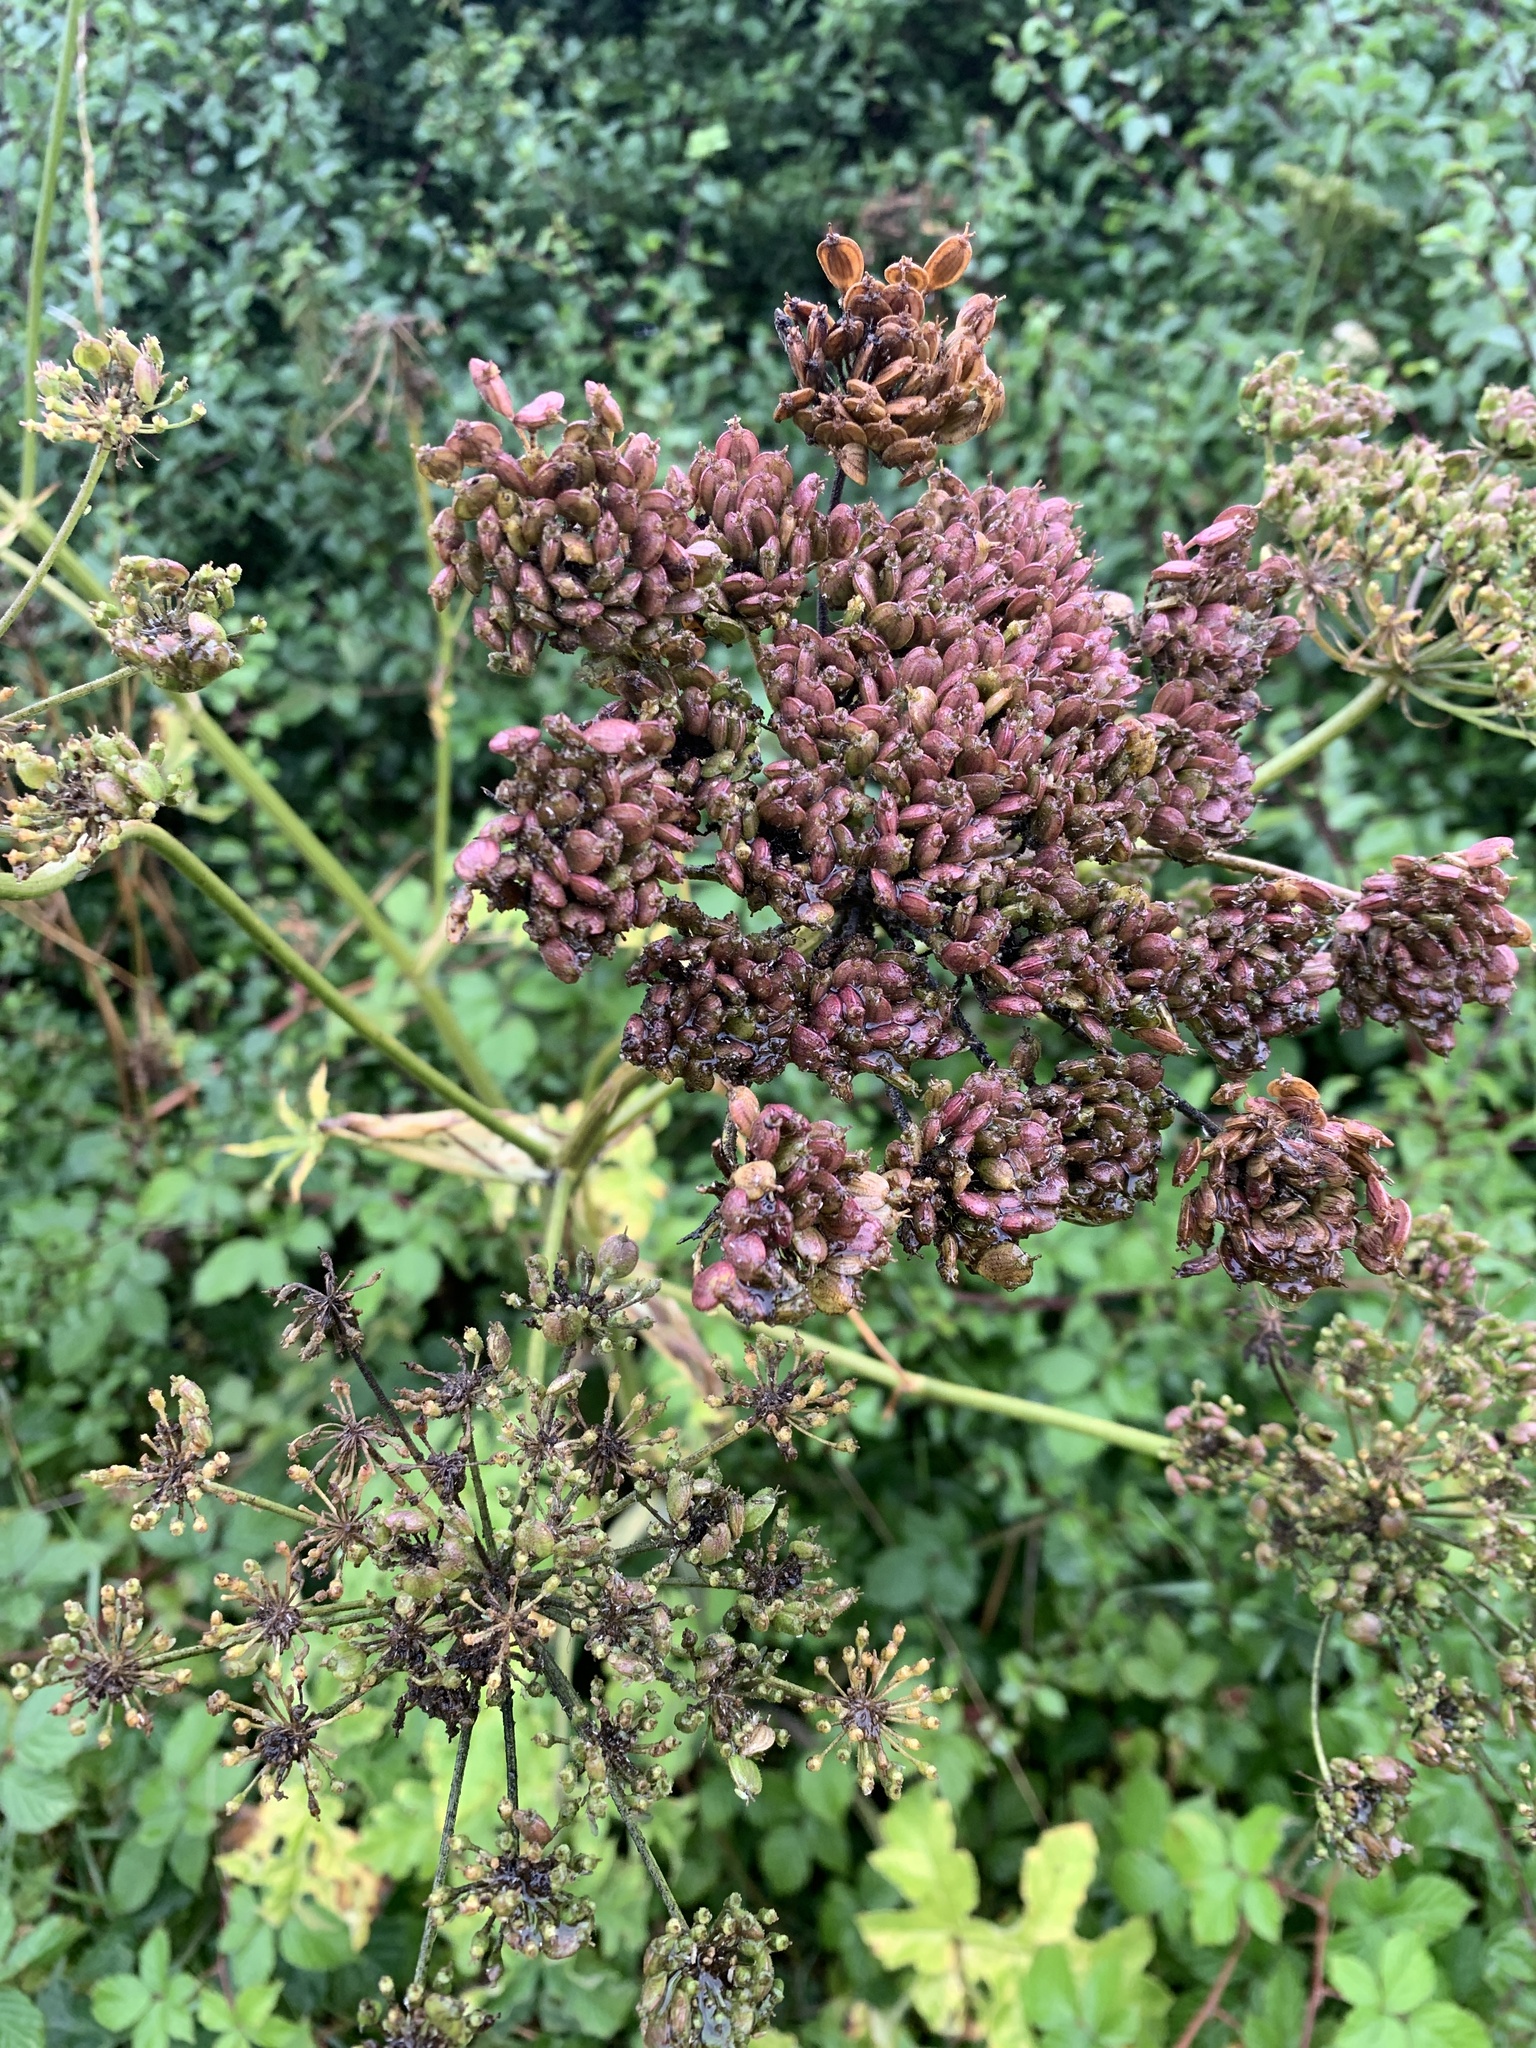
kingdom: Plantae
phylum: Tracheophyta
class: Magnoliopsida
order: Apiales
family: Apiaceae
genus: Heracleum
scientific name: Heracleum sphondylium
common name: Hogweed
